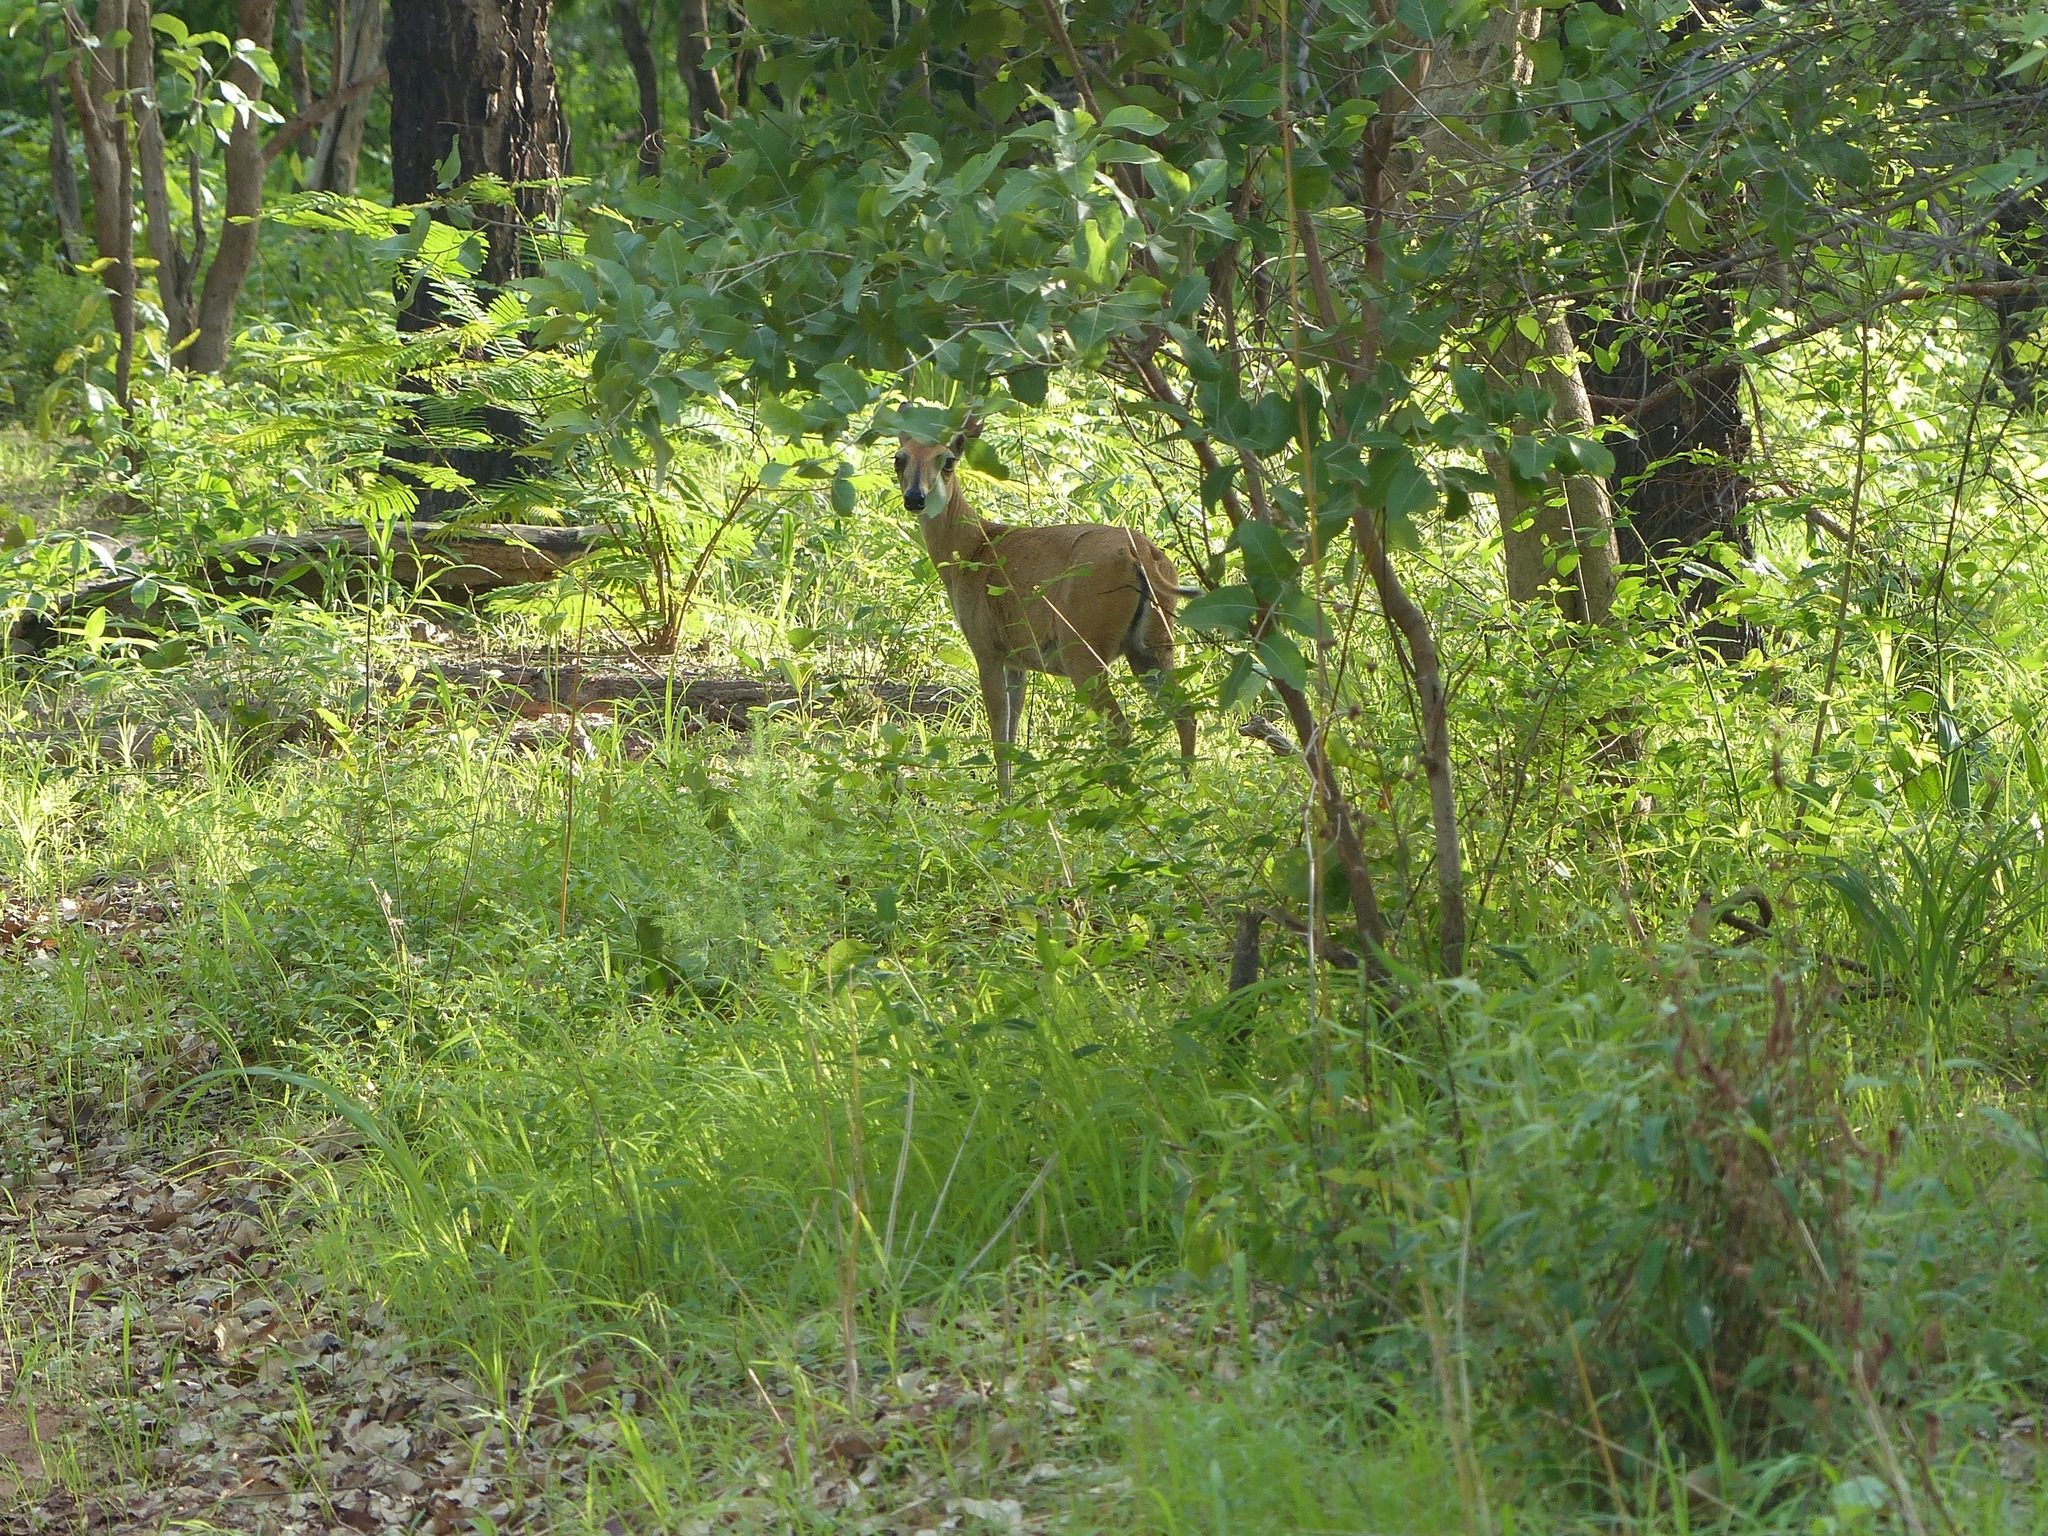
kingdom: Animalia
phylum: Chordata
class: Mammalia
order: Artiodactyla
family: Bovidae
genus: Sylvicapra
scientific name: Sylvicapra grimmia
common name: Bush duiker
